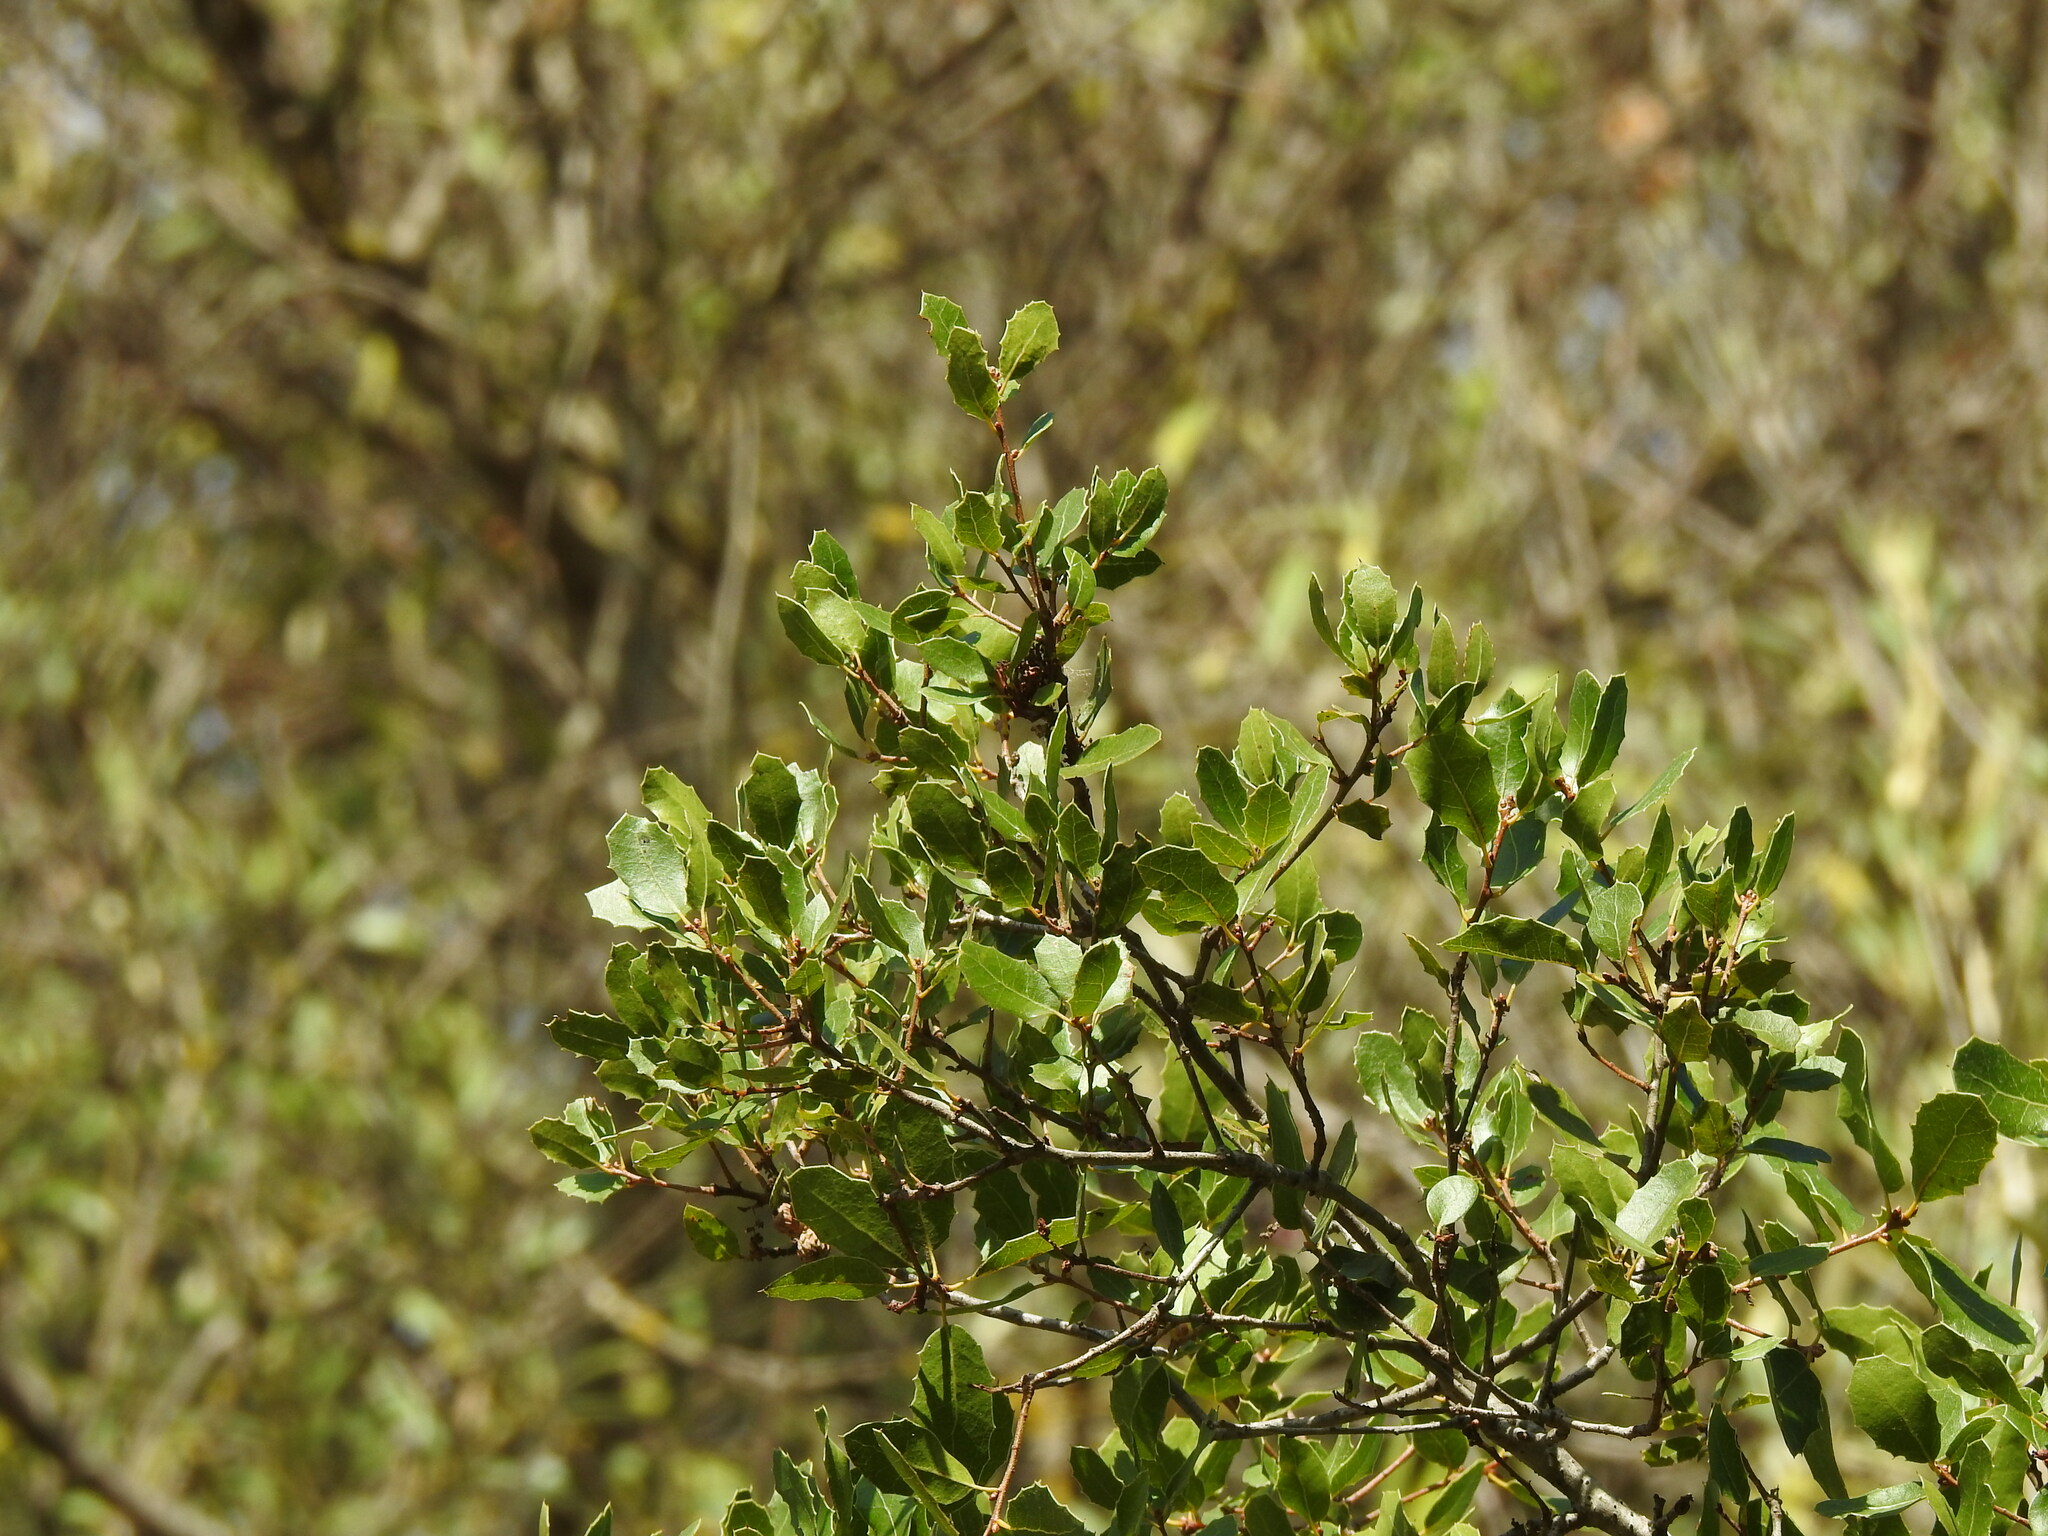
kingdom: Plantae
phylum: Tracheophyta
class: Magnoliopsida
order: Fagales
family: Fagaceae
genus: Quercus
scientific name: Quercus coccifera
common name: Kermes oak
